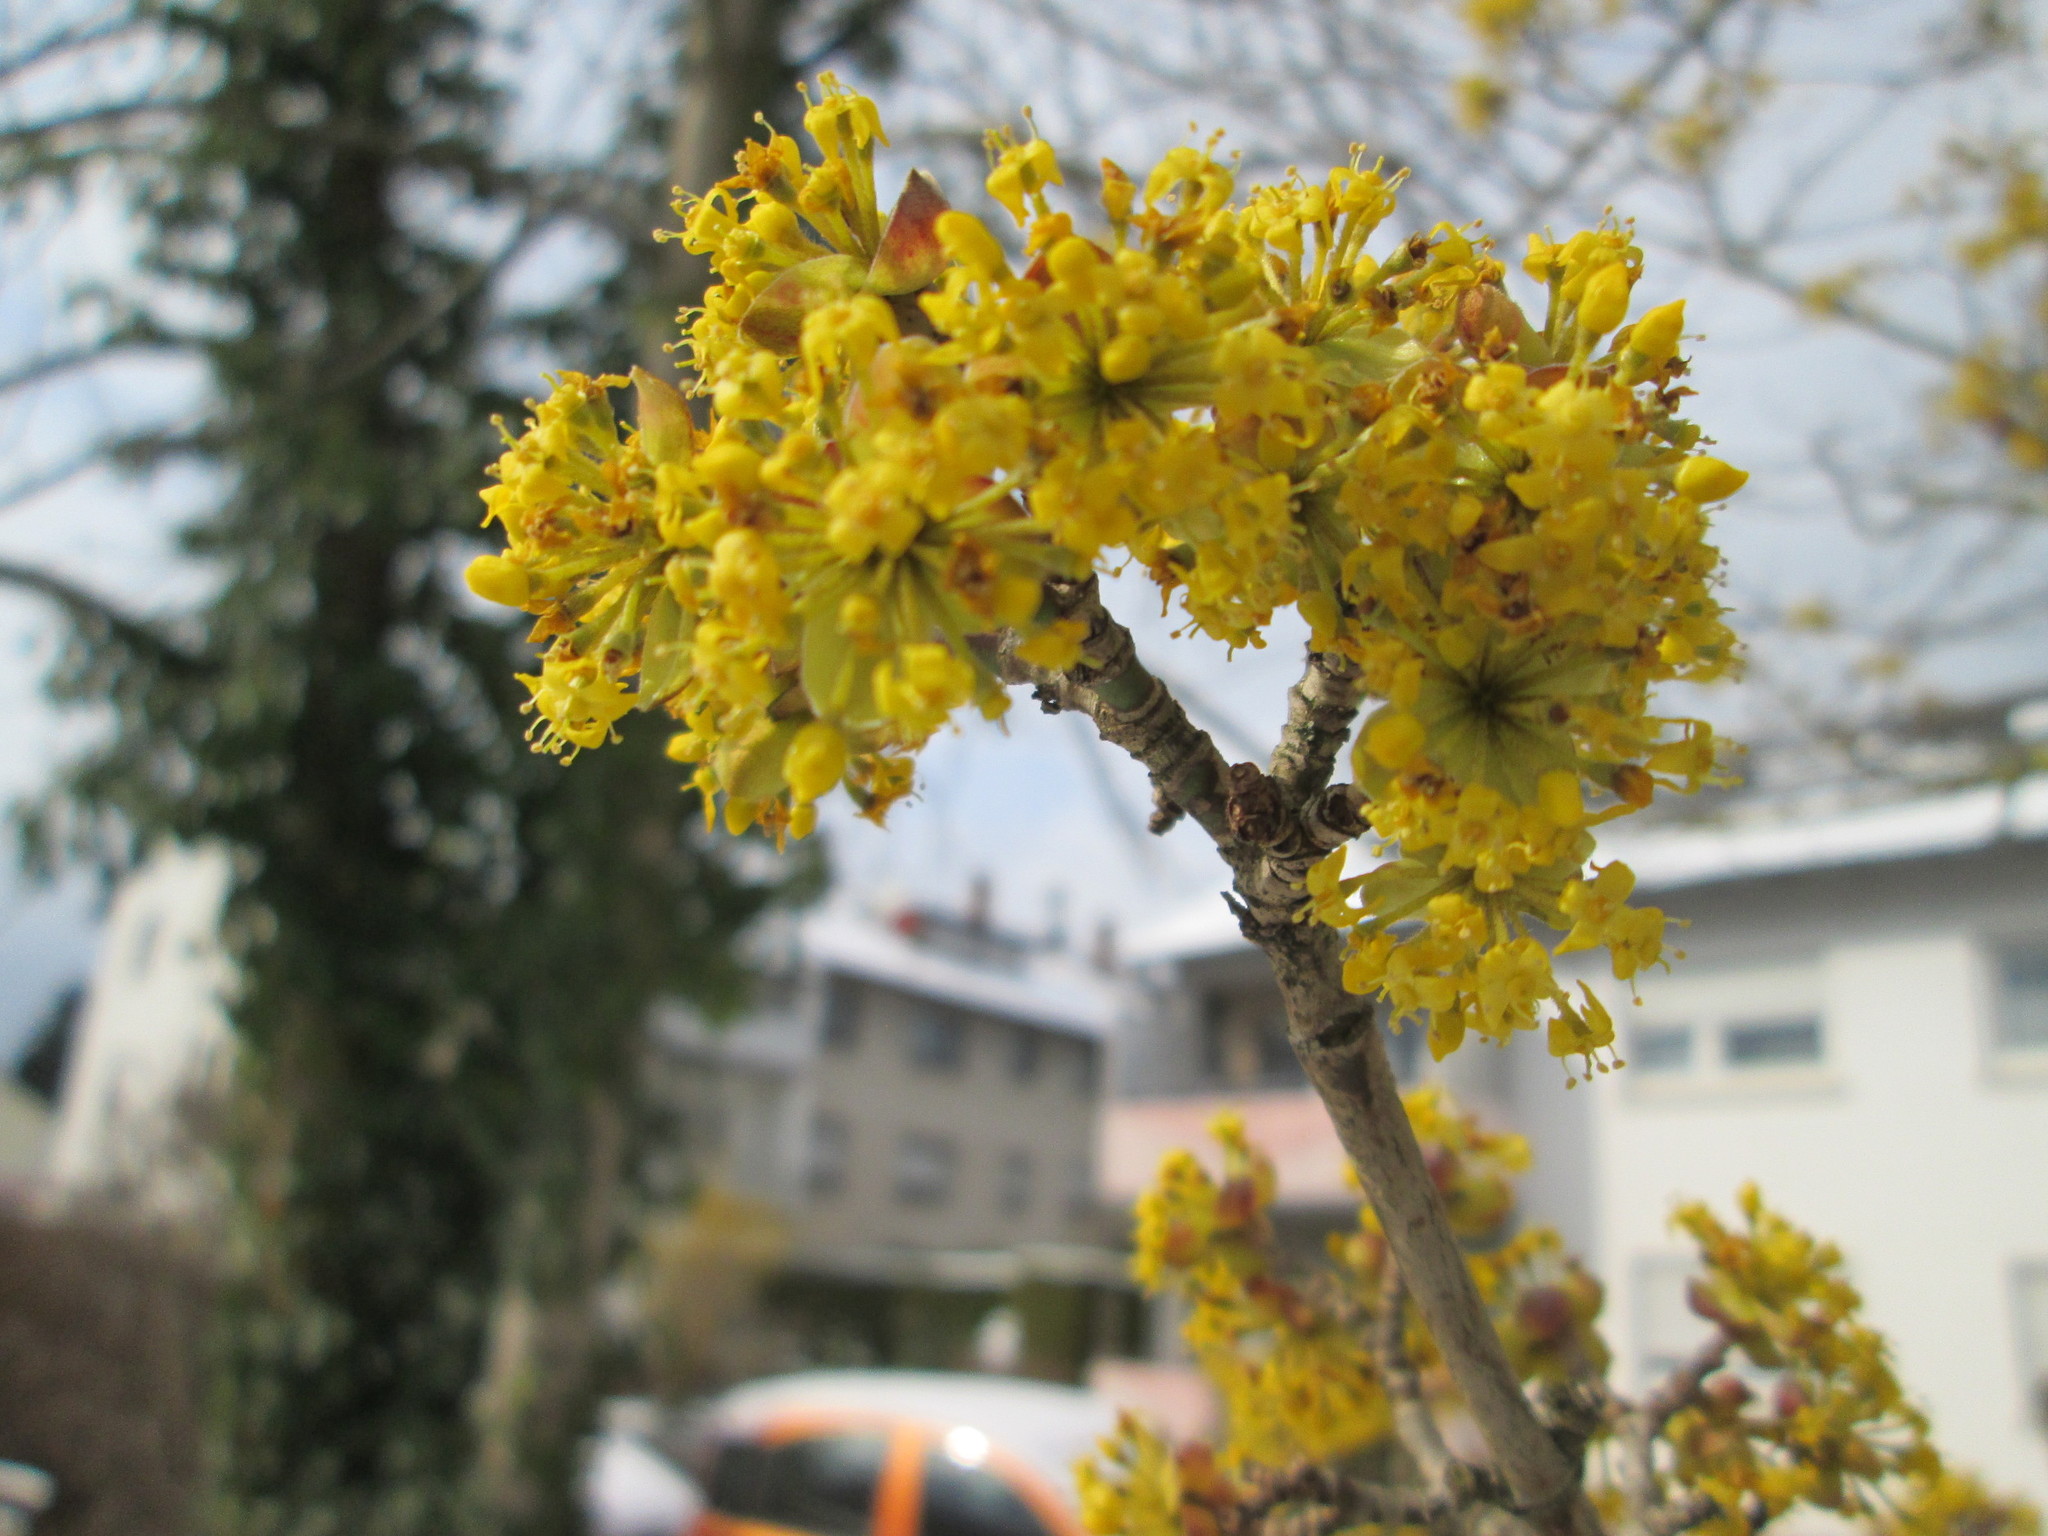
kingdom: Plantae
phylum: Tracheophyta
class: Magnoliopsida
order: Cornales
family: Cornaceae
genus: Cornus
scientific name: Cornus mas
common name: Cornelian-cherry
